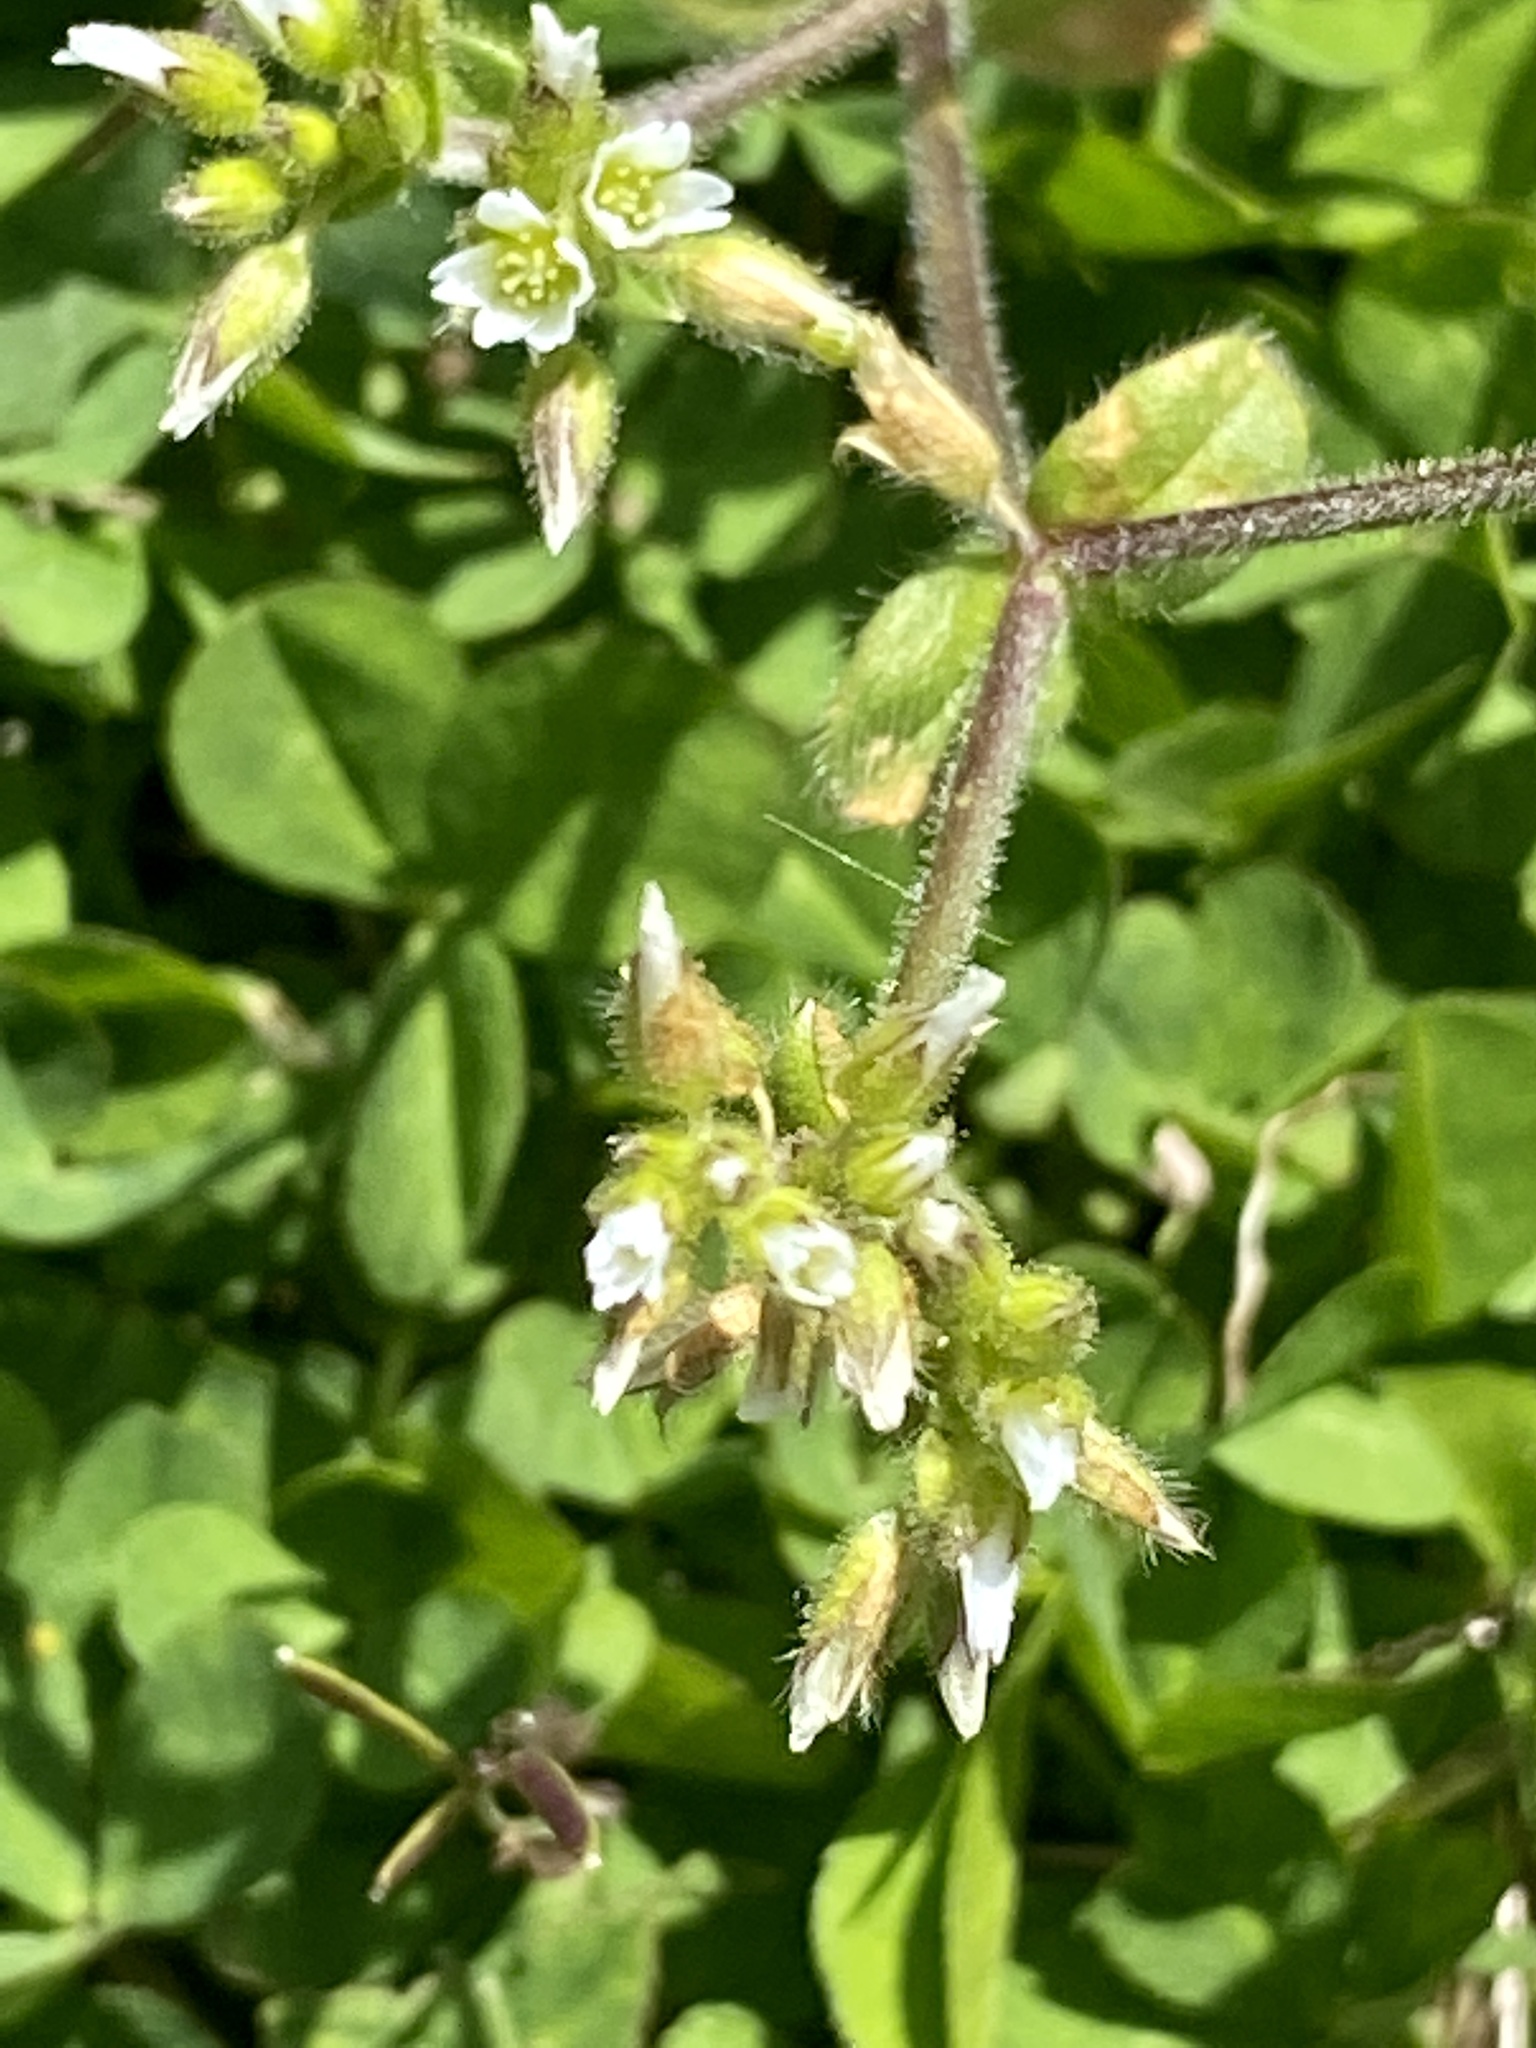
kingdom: Plantae
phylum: Tracheophyta
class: Magnoliopsida
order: Caryophyllales
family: Caryophyllaceae
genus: Cerastium
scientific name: Cerastium glomeratum
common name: Sticky chickweed
